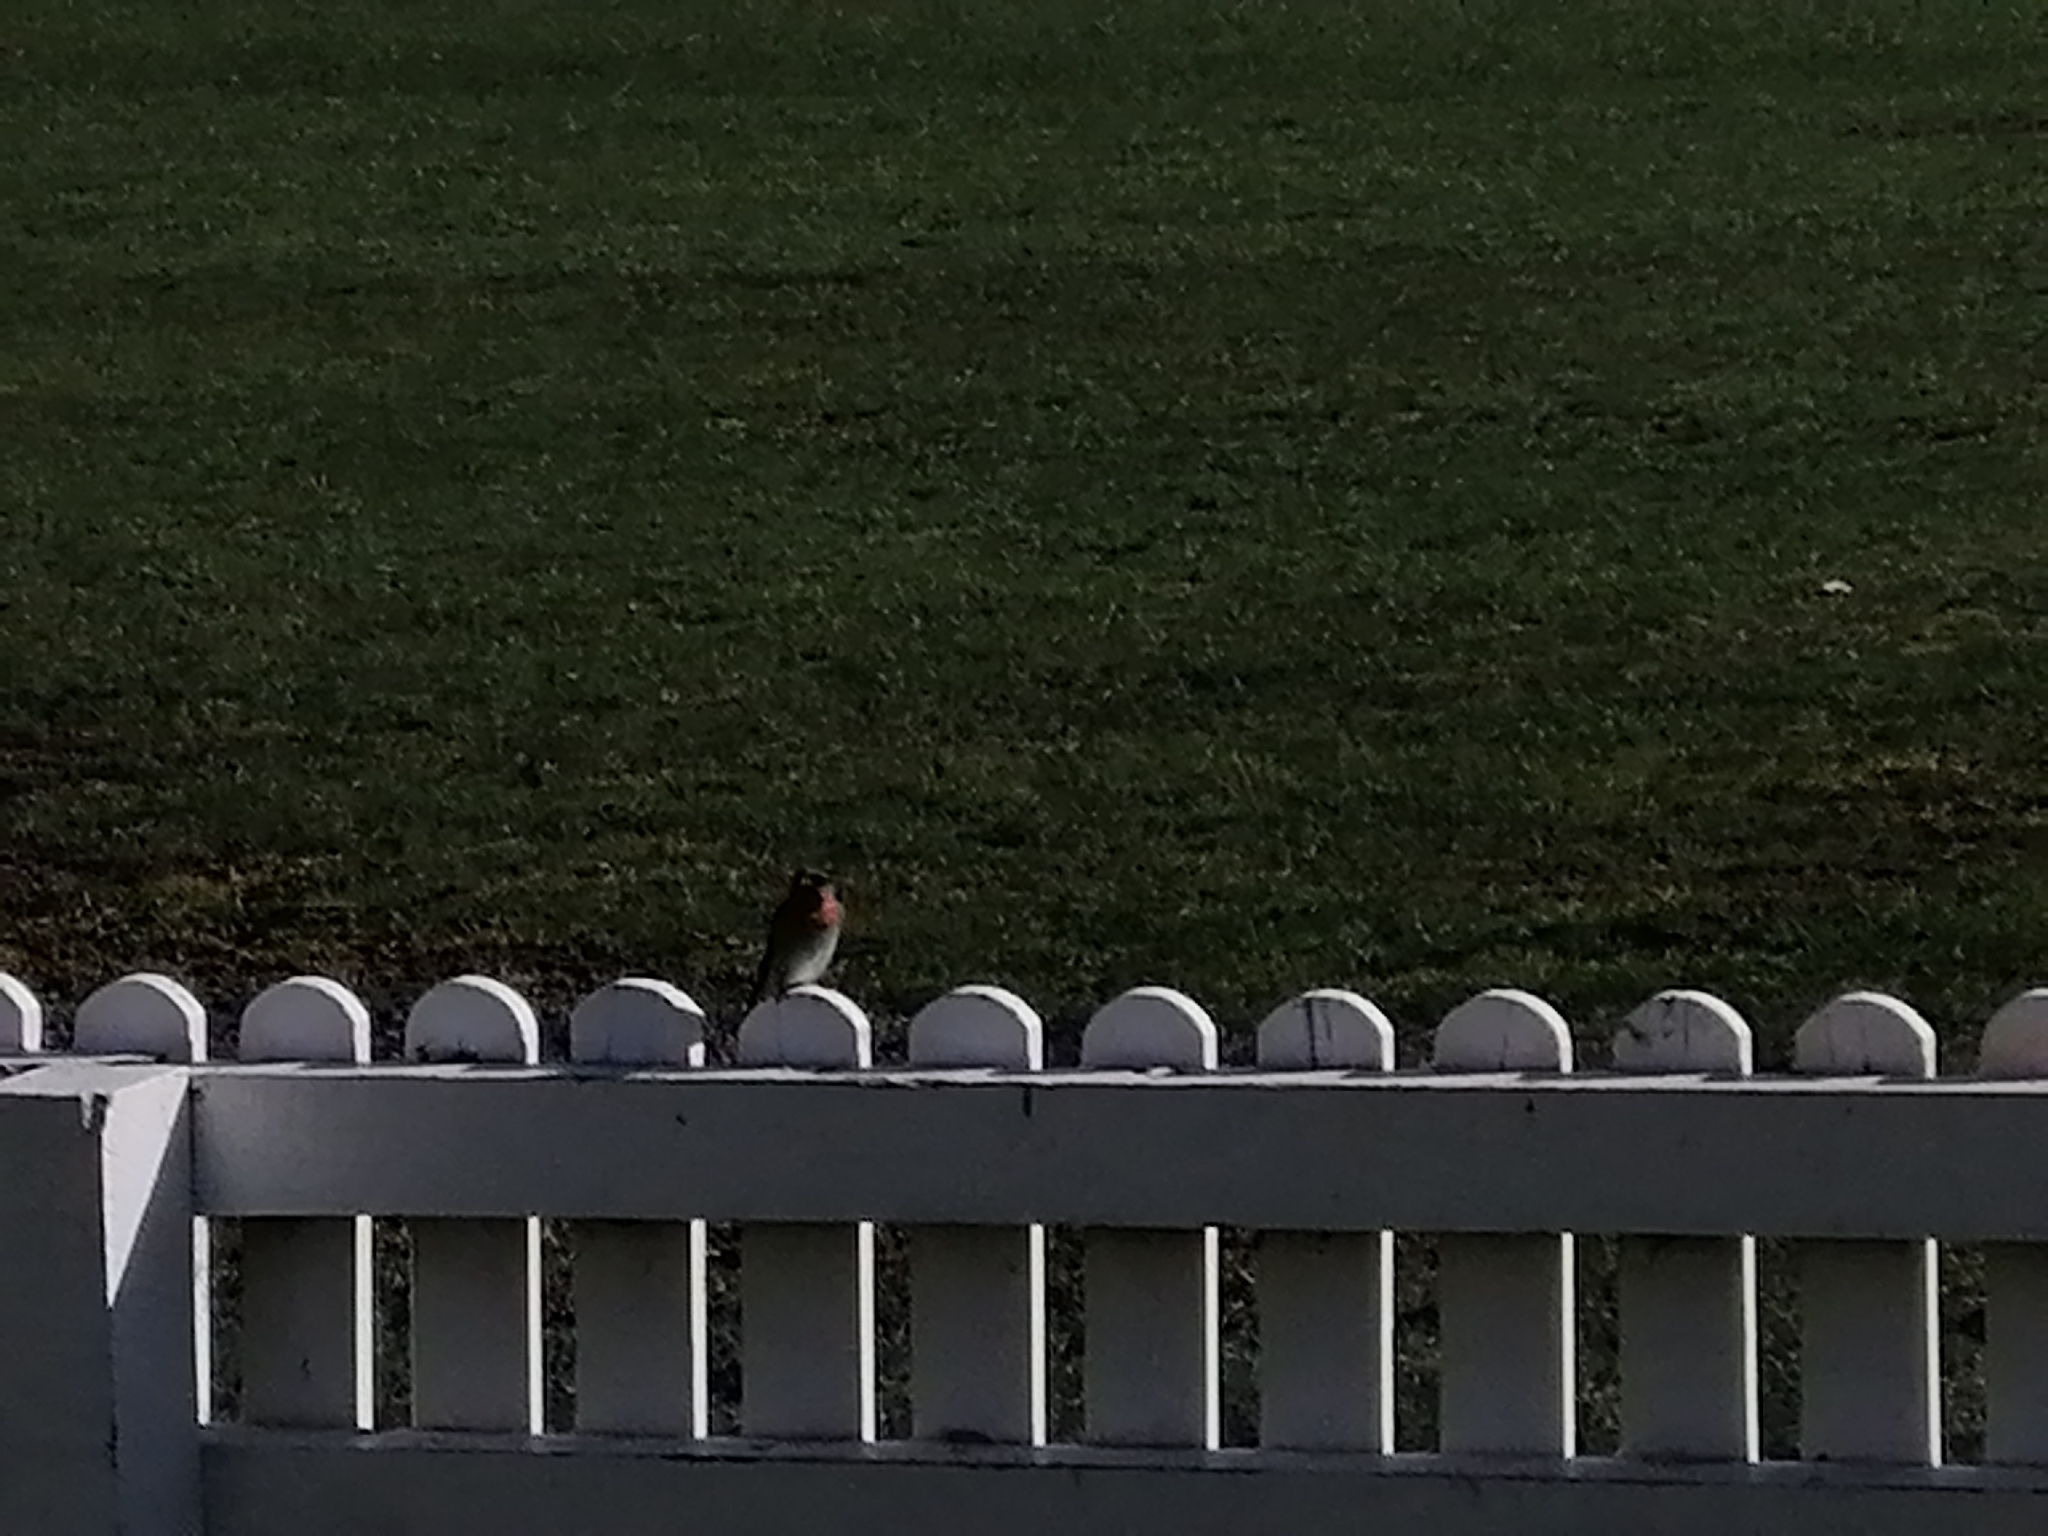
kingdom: Animalia
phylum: Chordata
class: Aves
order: Passeriformes
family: Hirundinidae
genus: Hirundo
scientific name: Hirundo neoxena
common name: Welcome swallow
